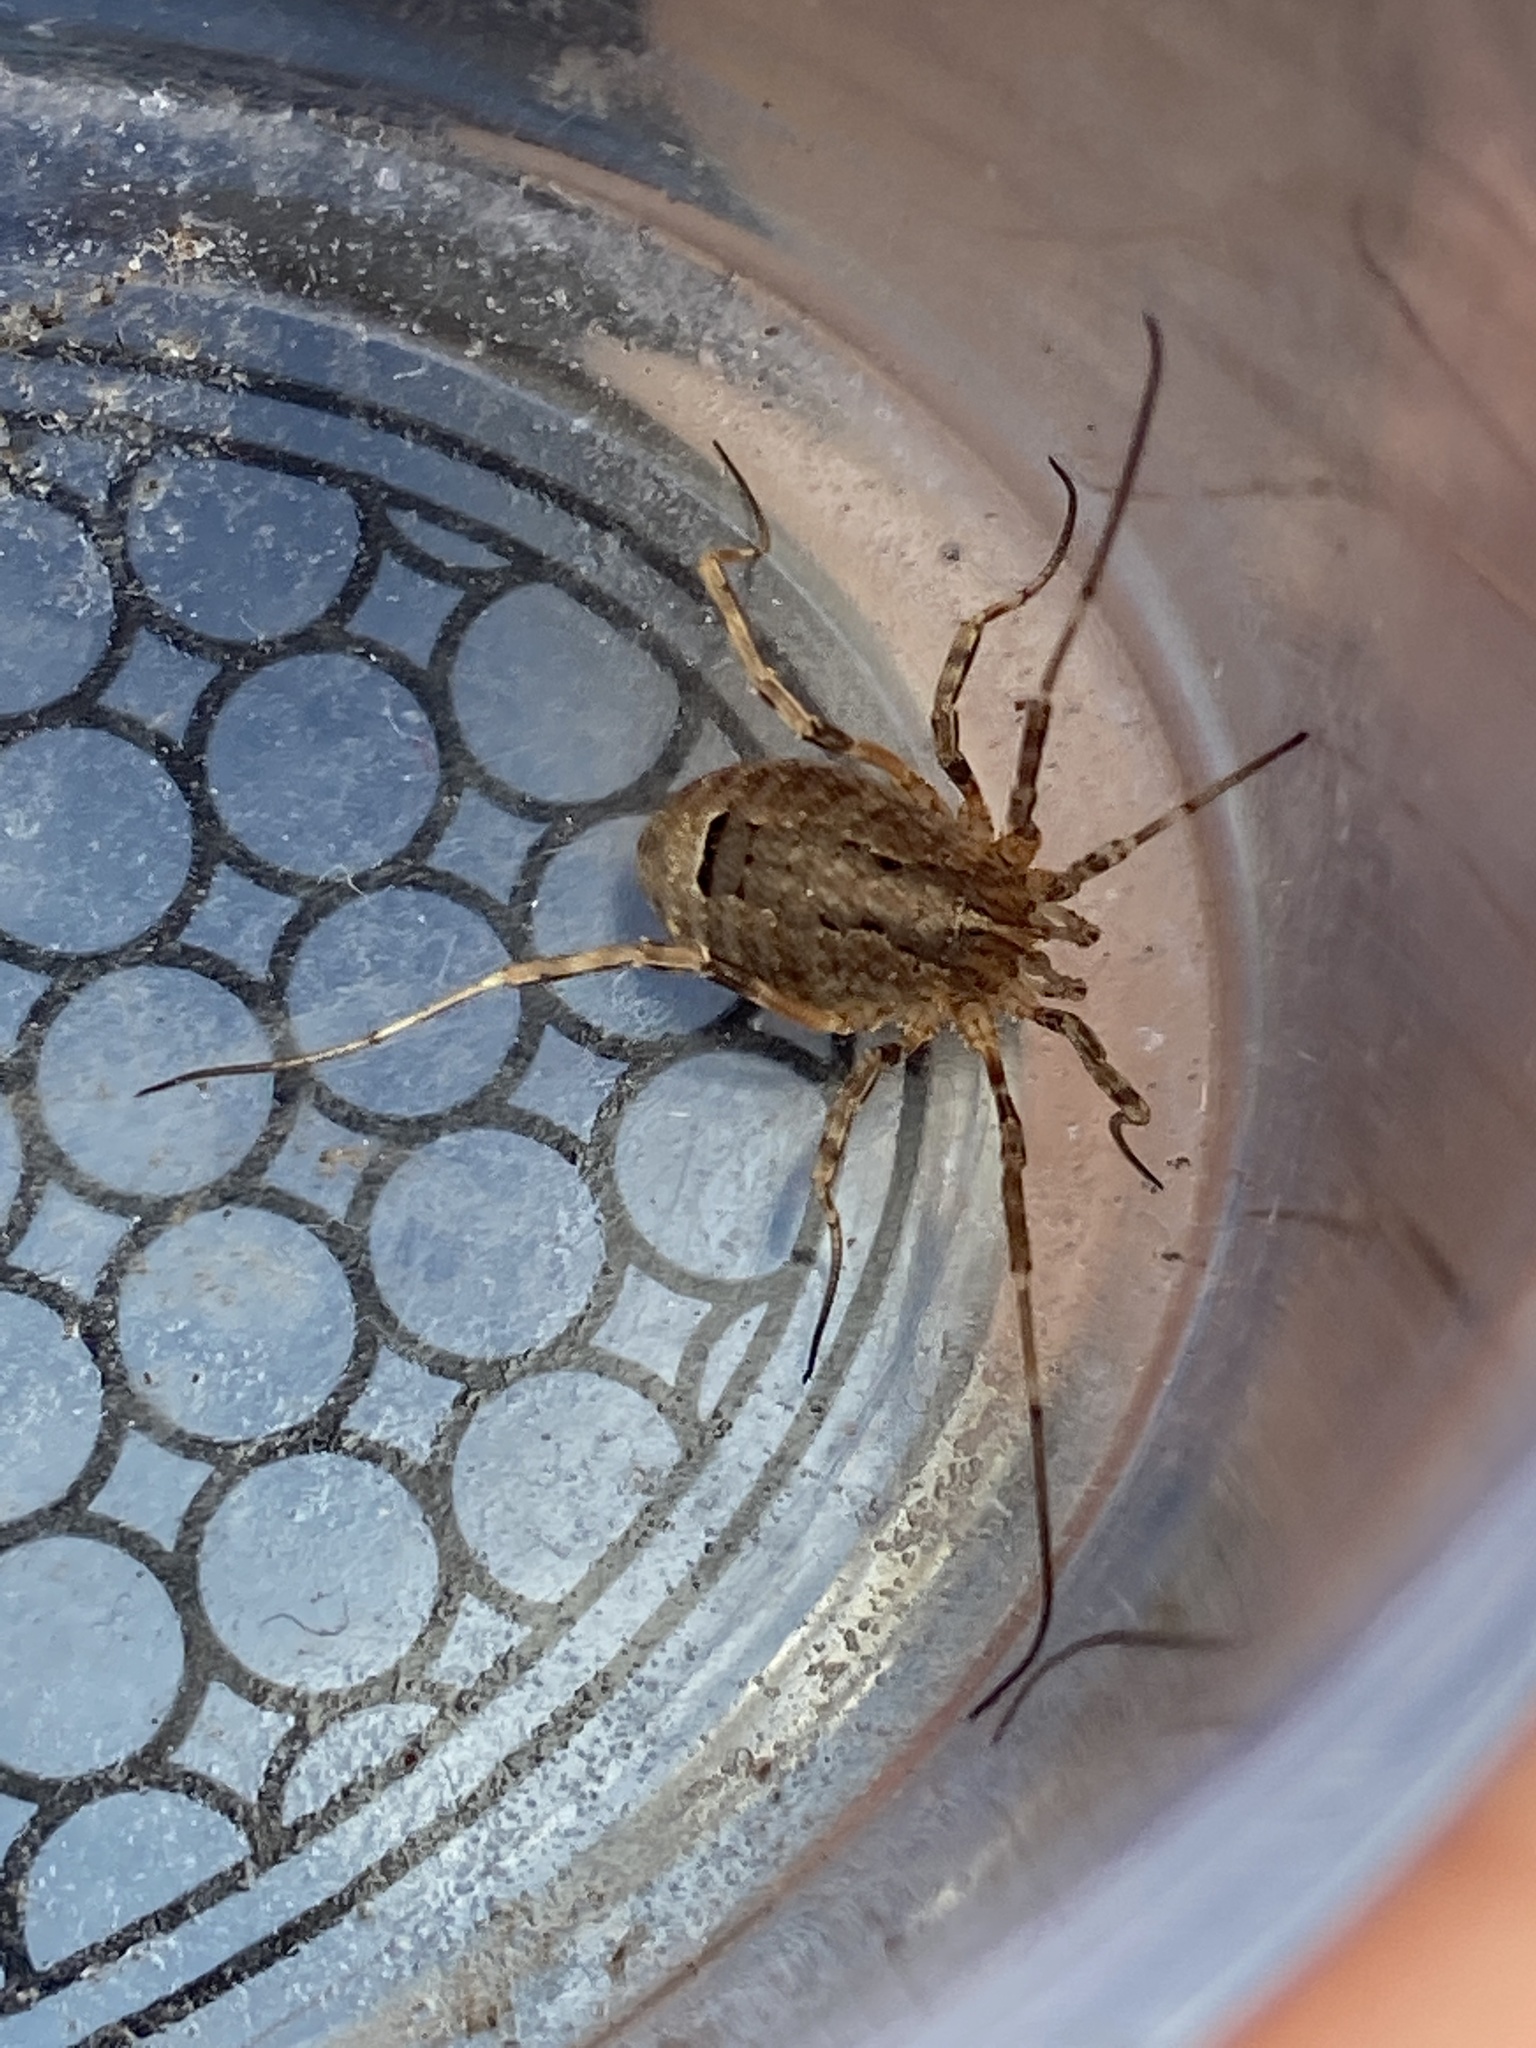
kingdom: Animalia
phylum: Arthropoda
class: Arachnida
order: Opiliones
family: Phalangiidae
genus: Odiellus
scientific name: Odiellus spinosus
